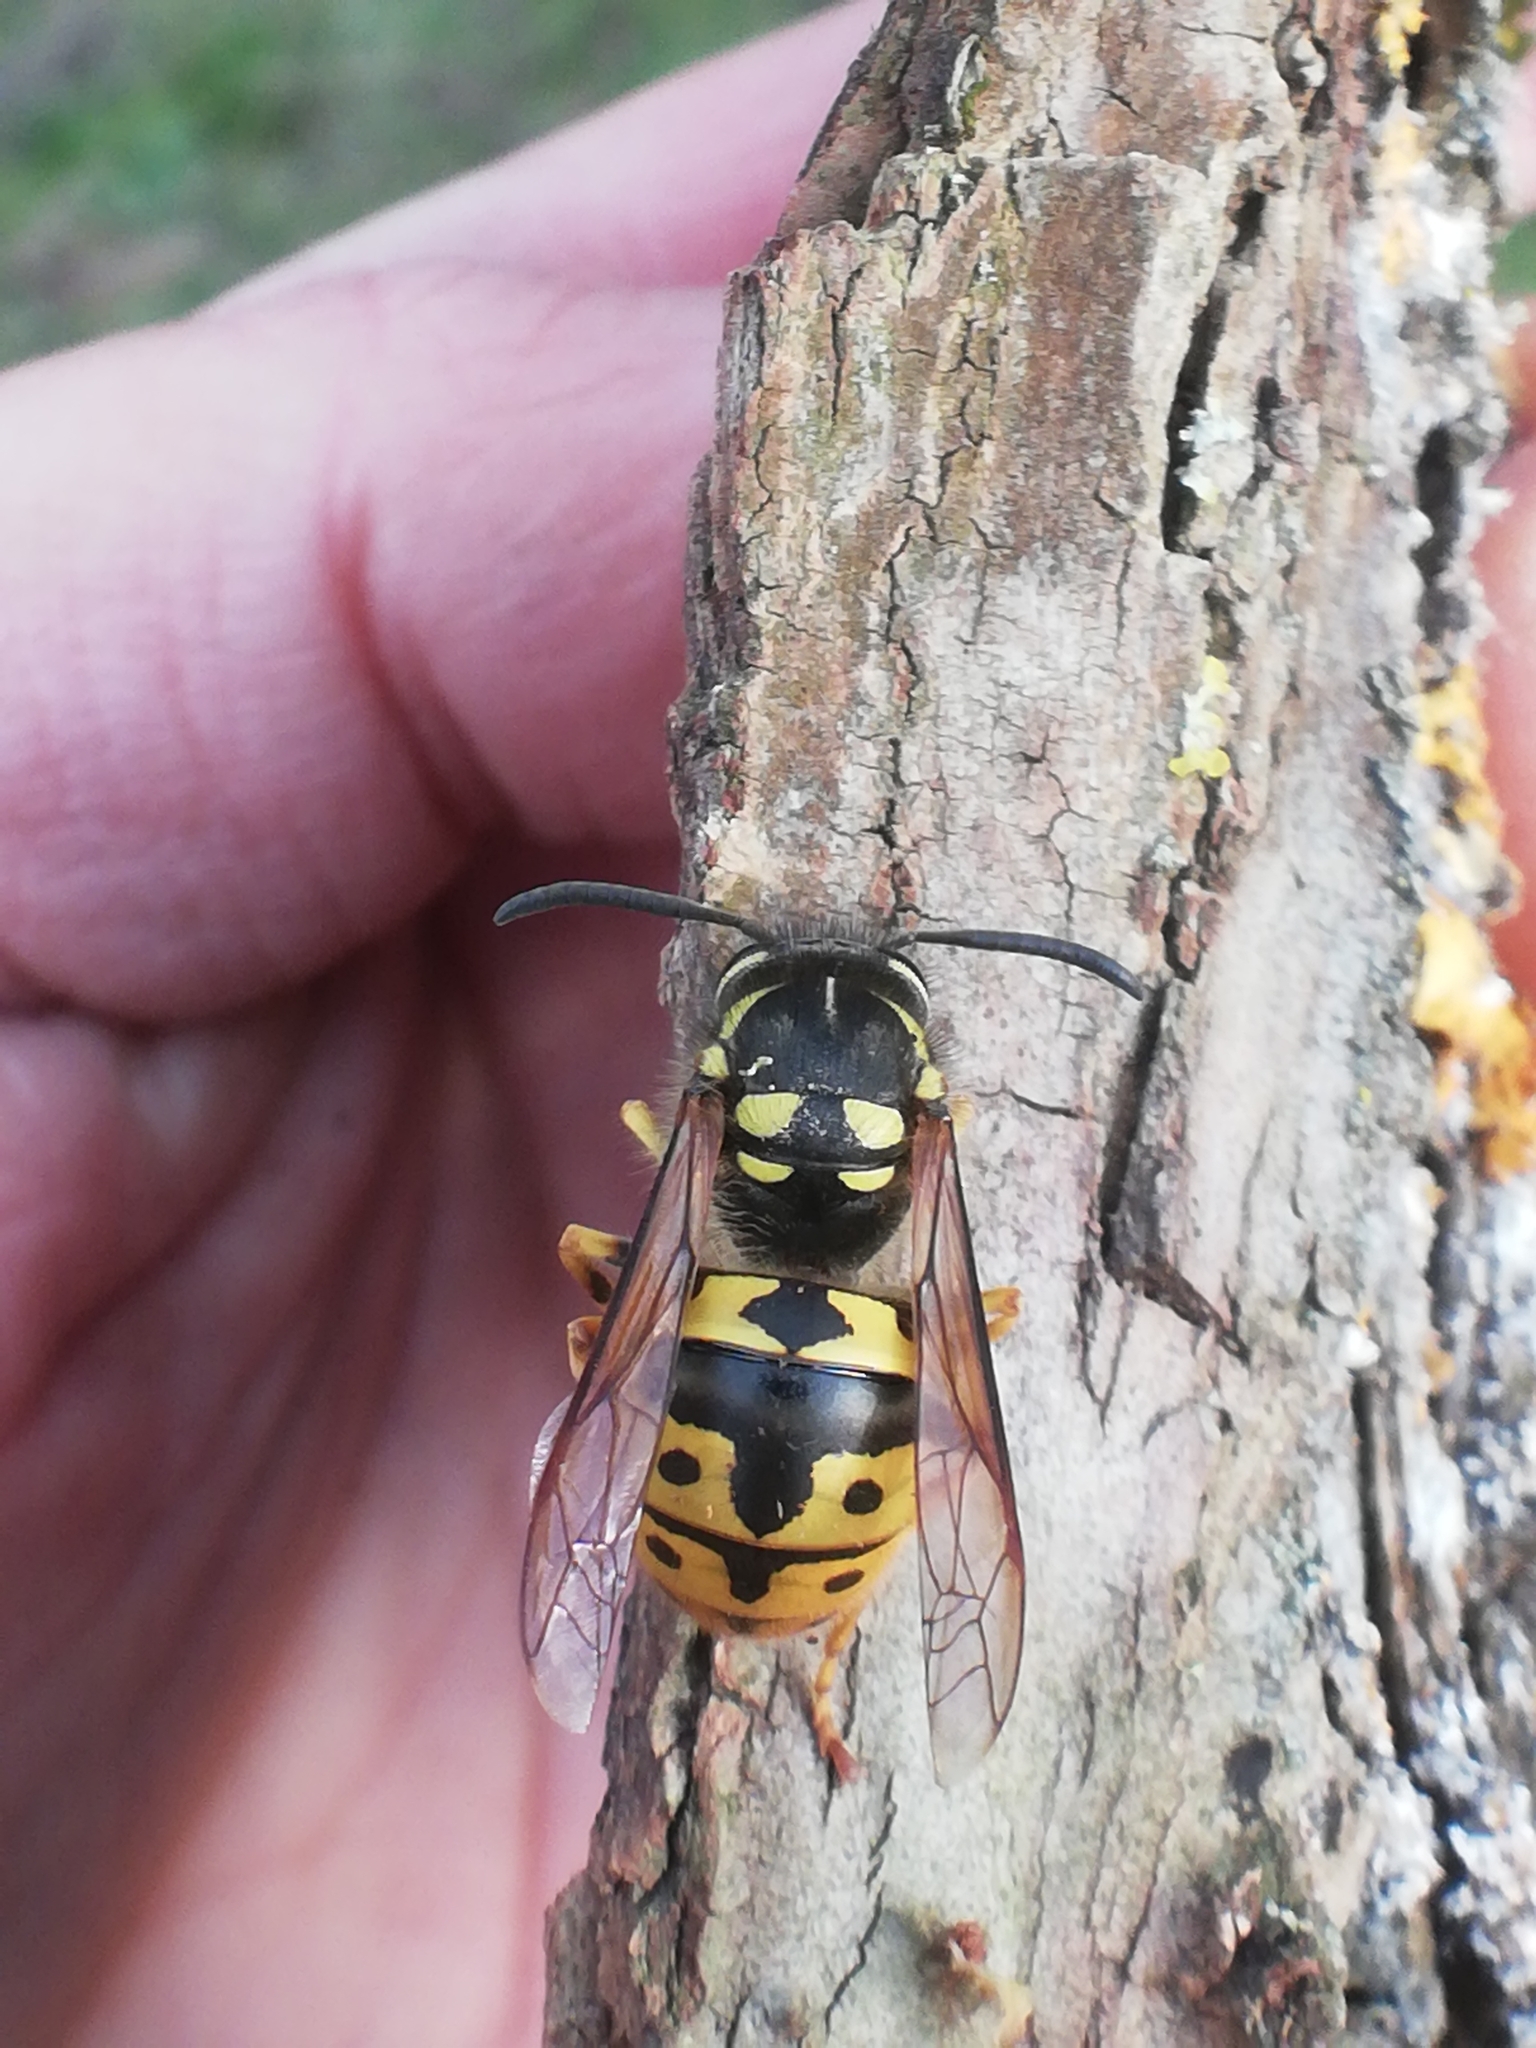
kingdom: Animalia
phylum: Arthropoda
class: Insecta
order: Hymenoptera
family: Vespidae
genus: Vespula
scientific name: Vespula germanica
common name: German wasp
